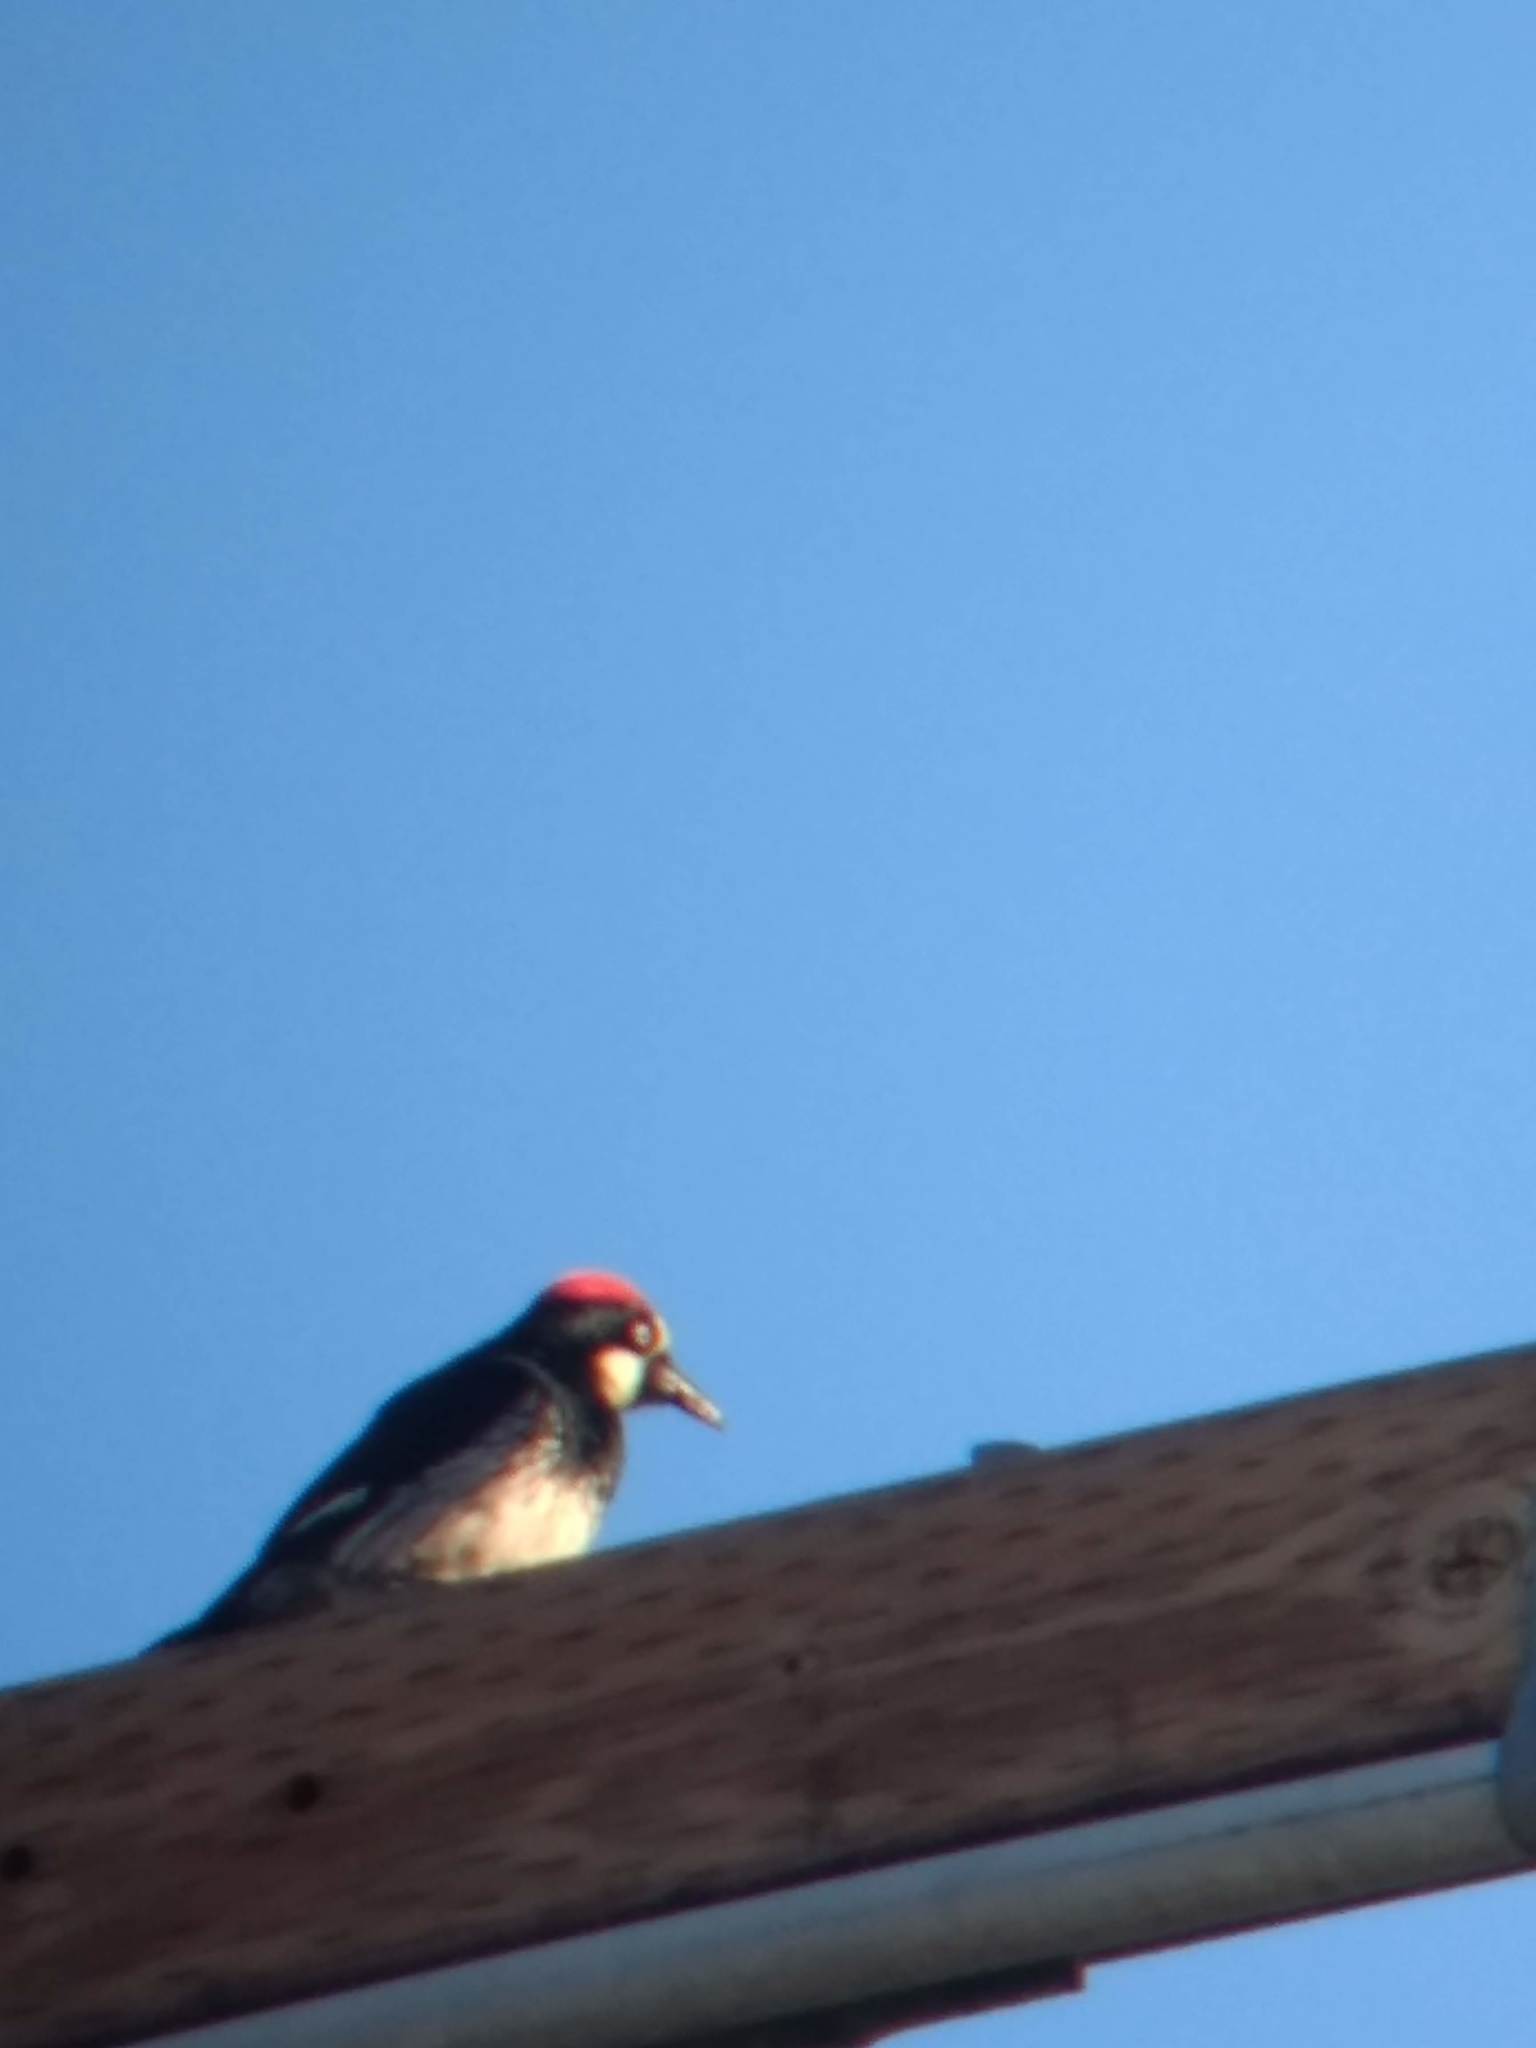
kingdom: Animalia
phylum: Chordata
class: Aves
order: Piciformes
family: Picidae
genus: Melanerpes
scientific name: Melanerpes formicivorus
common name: Acorn woodpecker
